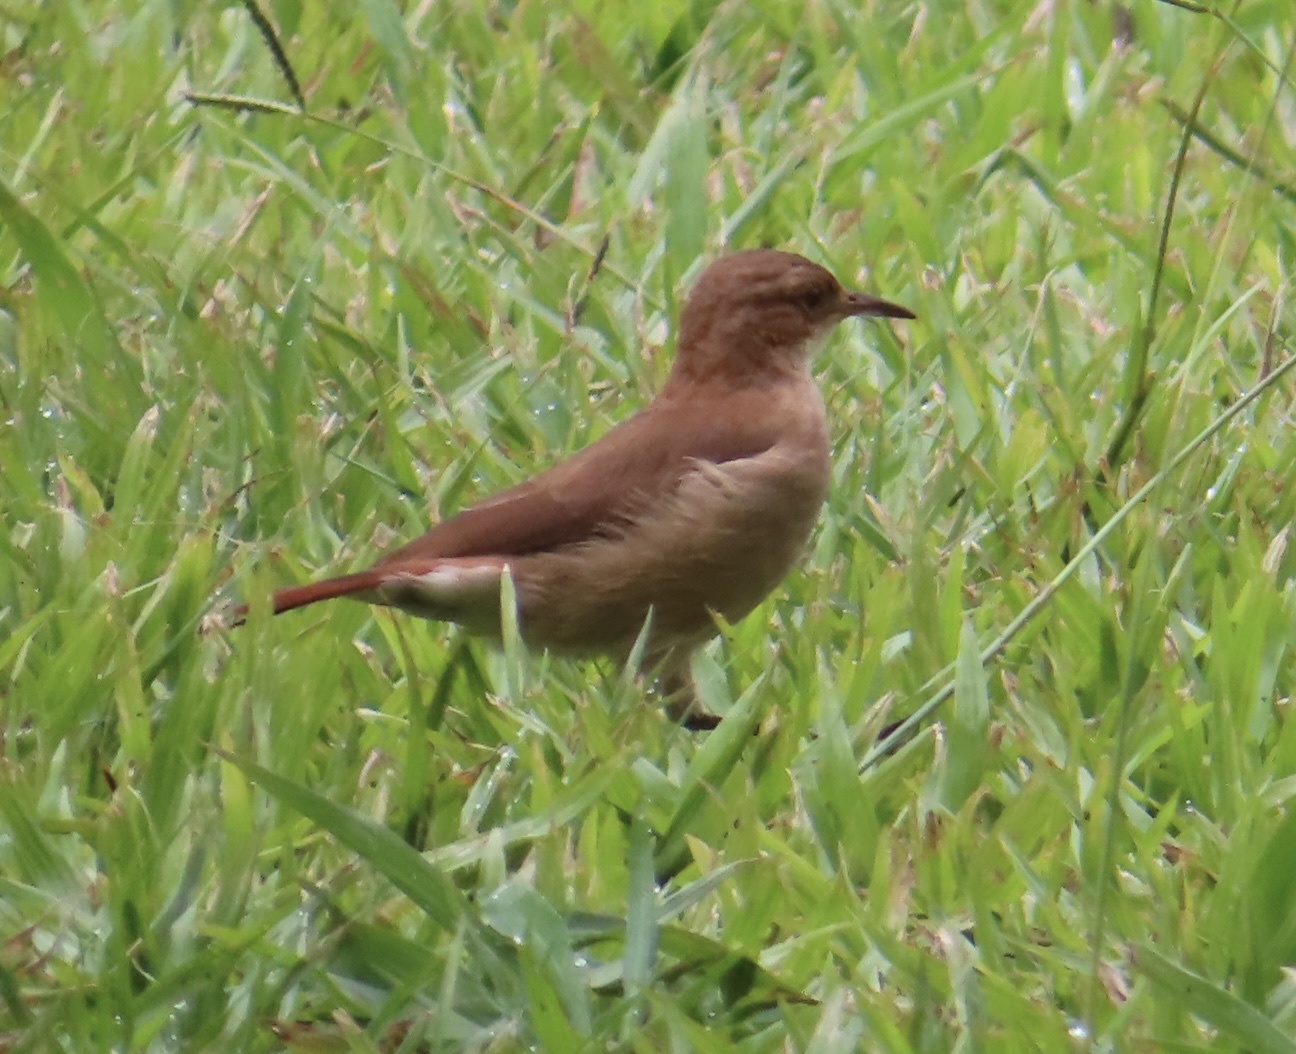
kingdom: Animalia
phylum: Chordata
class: Aves
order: Passeriformes
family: Furnariidae
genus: Furnarius
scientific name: Furnarius rufus
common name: Rufous hornero
